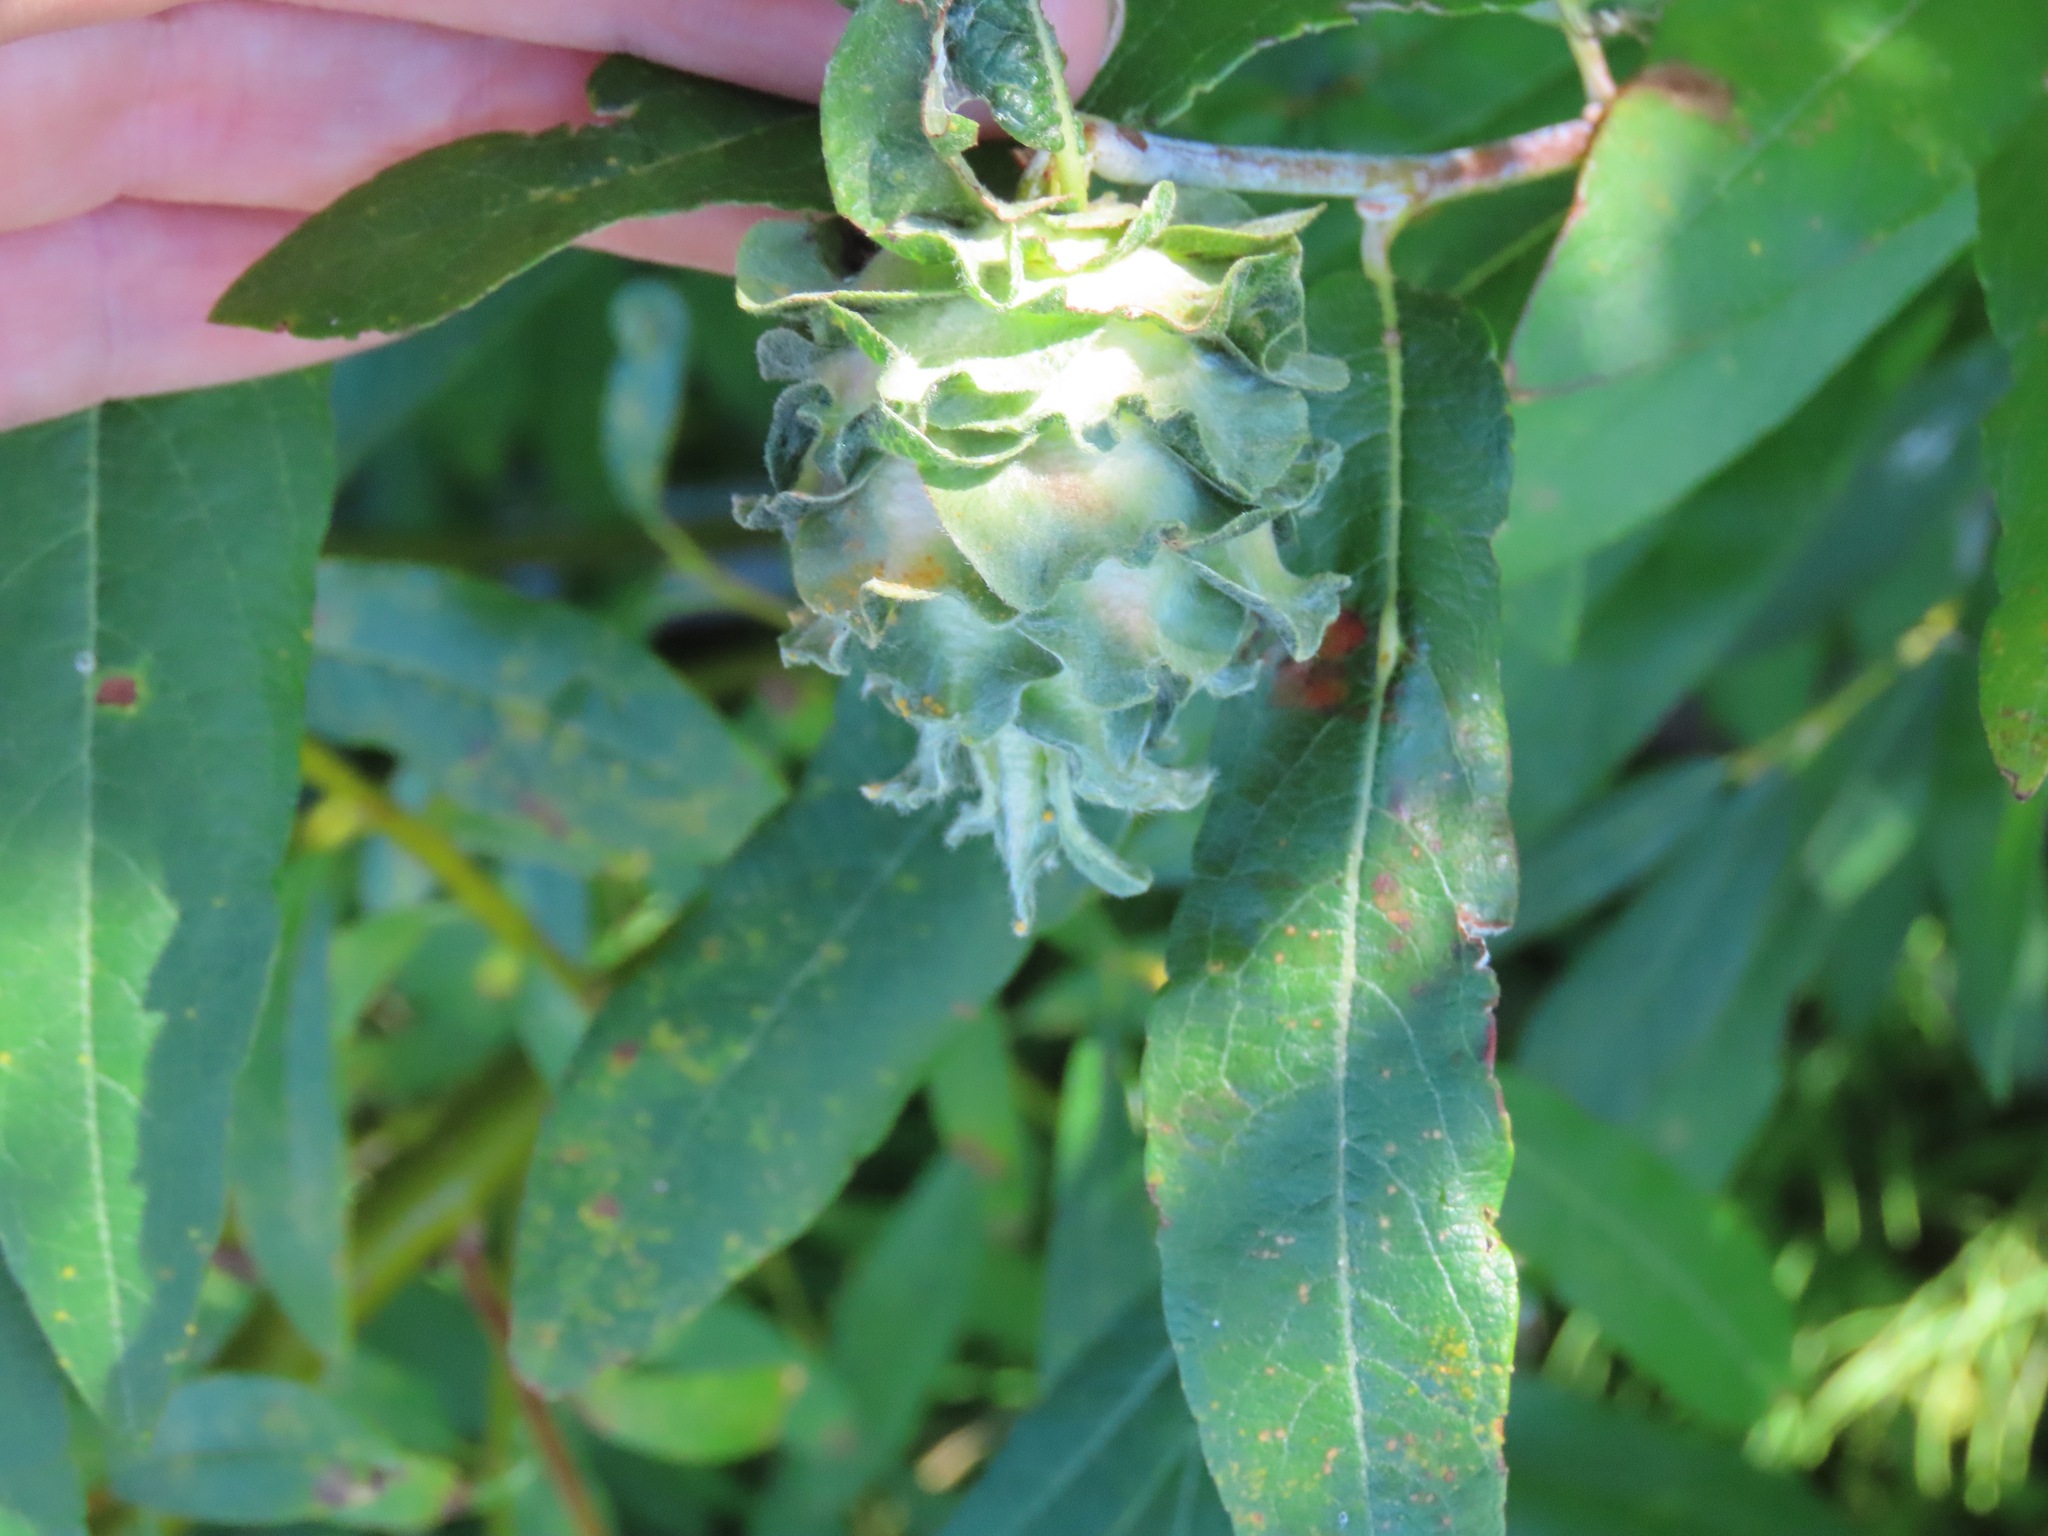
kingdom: Animalia
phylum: Arthropoda
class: Insecta
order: Diptera
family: Cecidomyiidae
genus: Rabdophaga
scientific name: Rabdophaga salicisbrassicoides
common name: Willow cabbagegall midge
